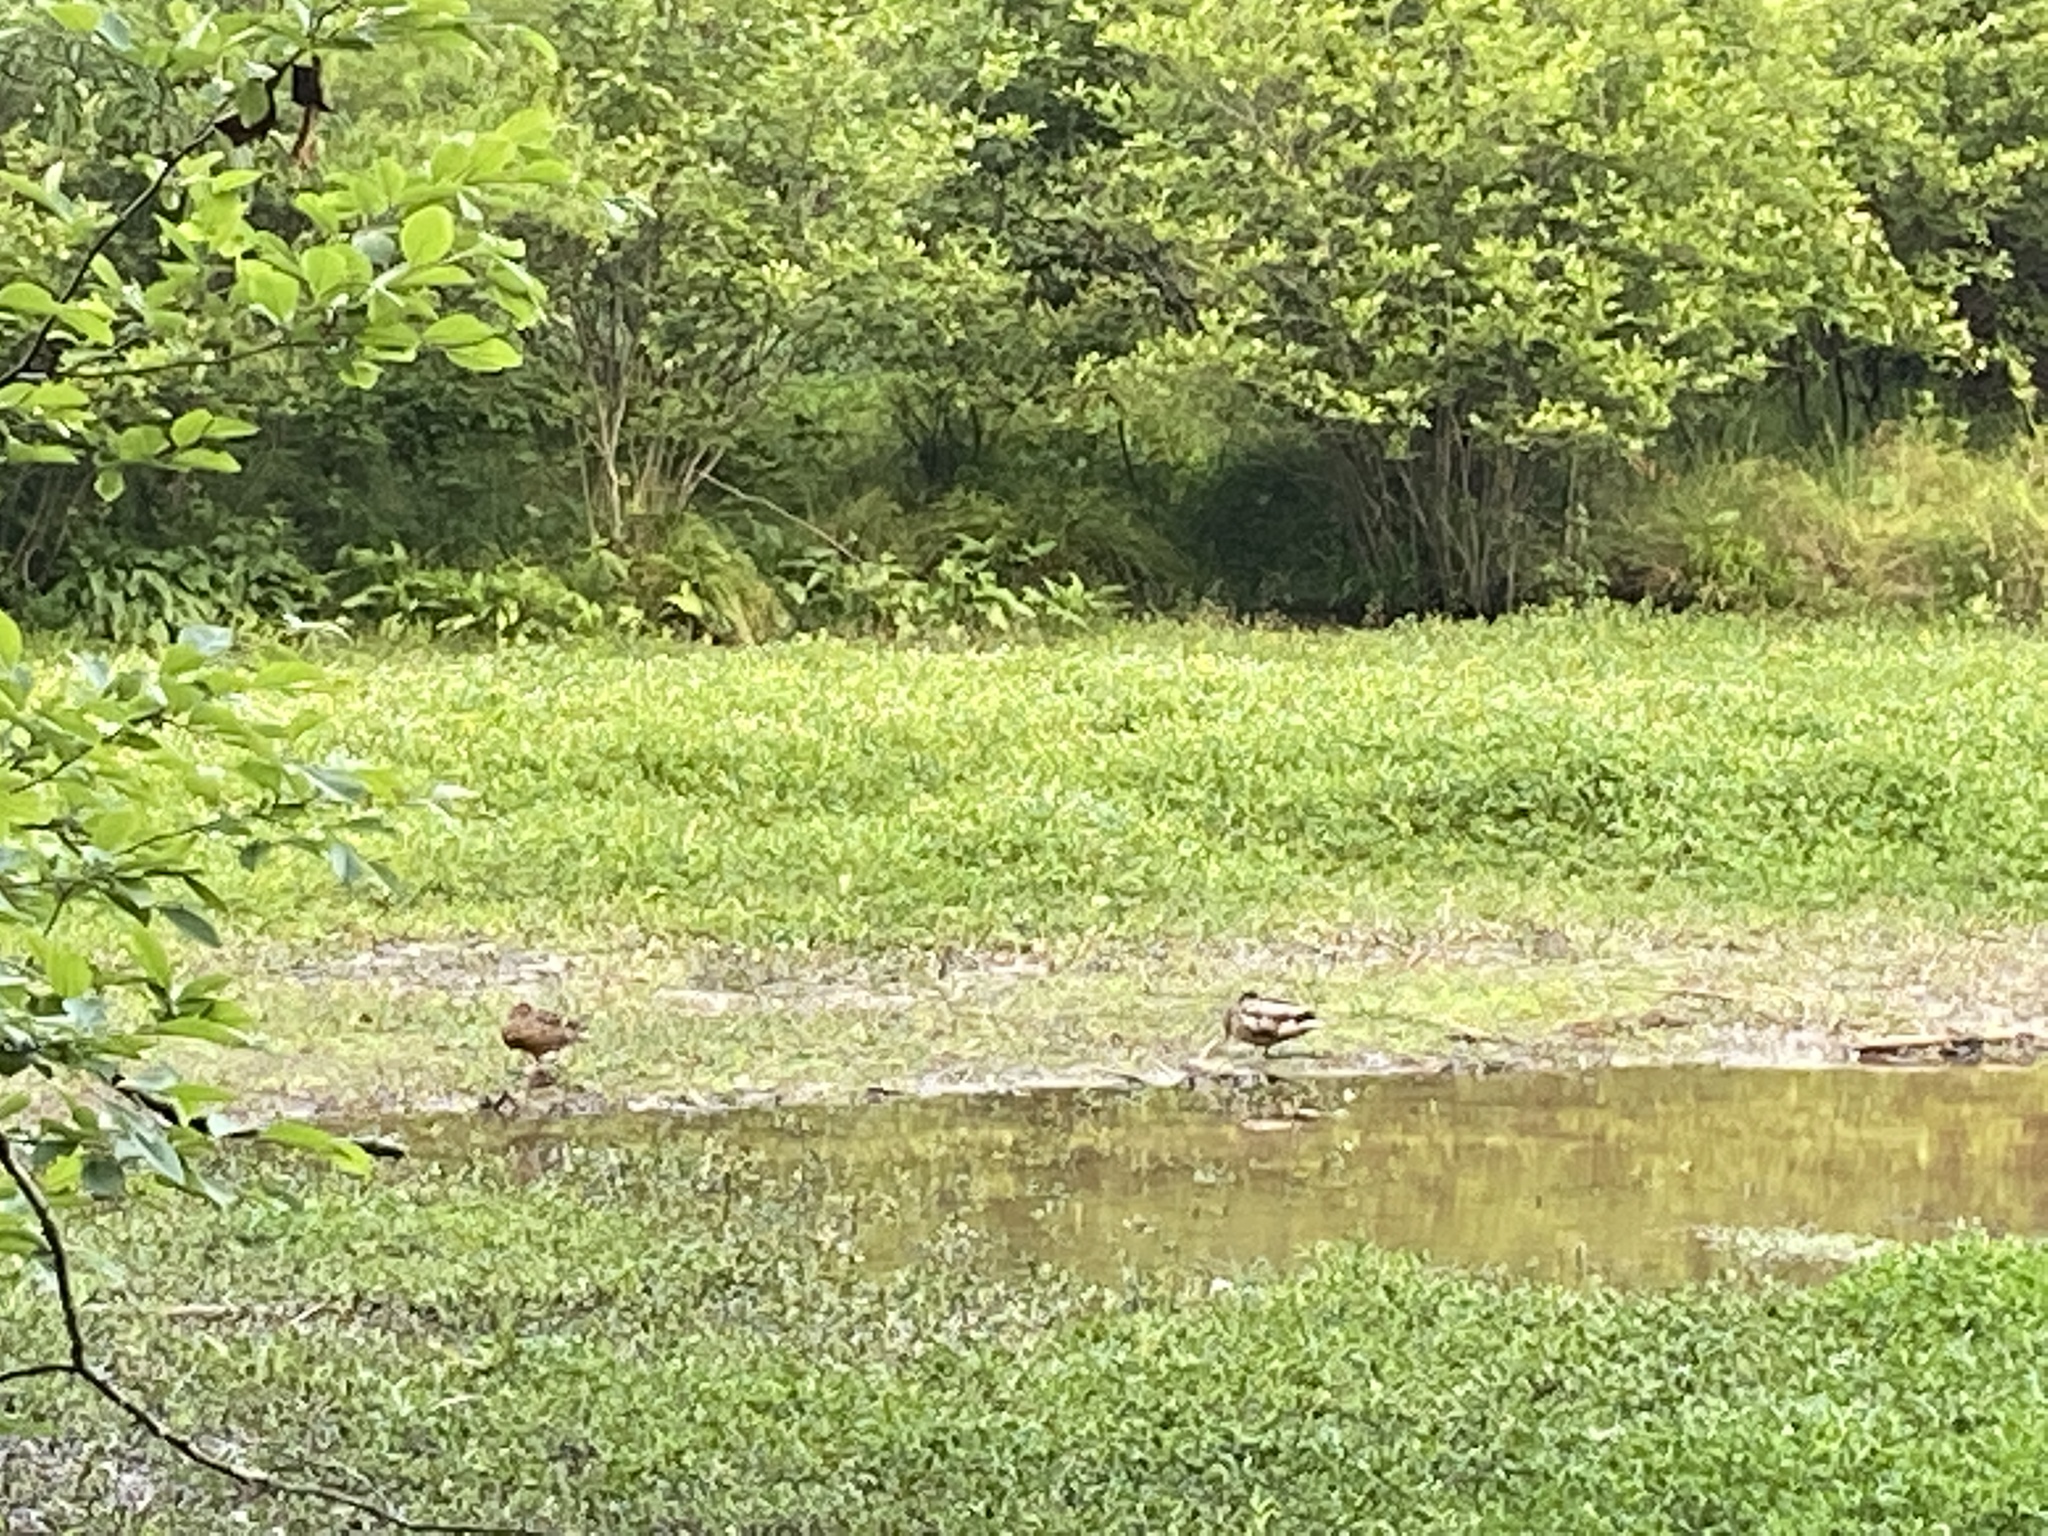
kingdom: Animalia
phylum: Chordata
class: Aves
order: Anseriformes
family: Anatidae
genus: Anas
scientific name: Anas platyrhynchos
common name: Mallard
